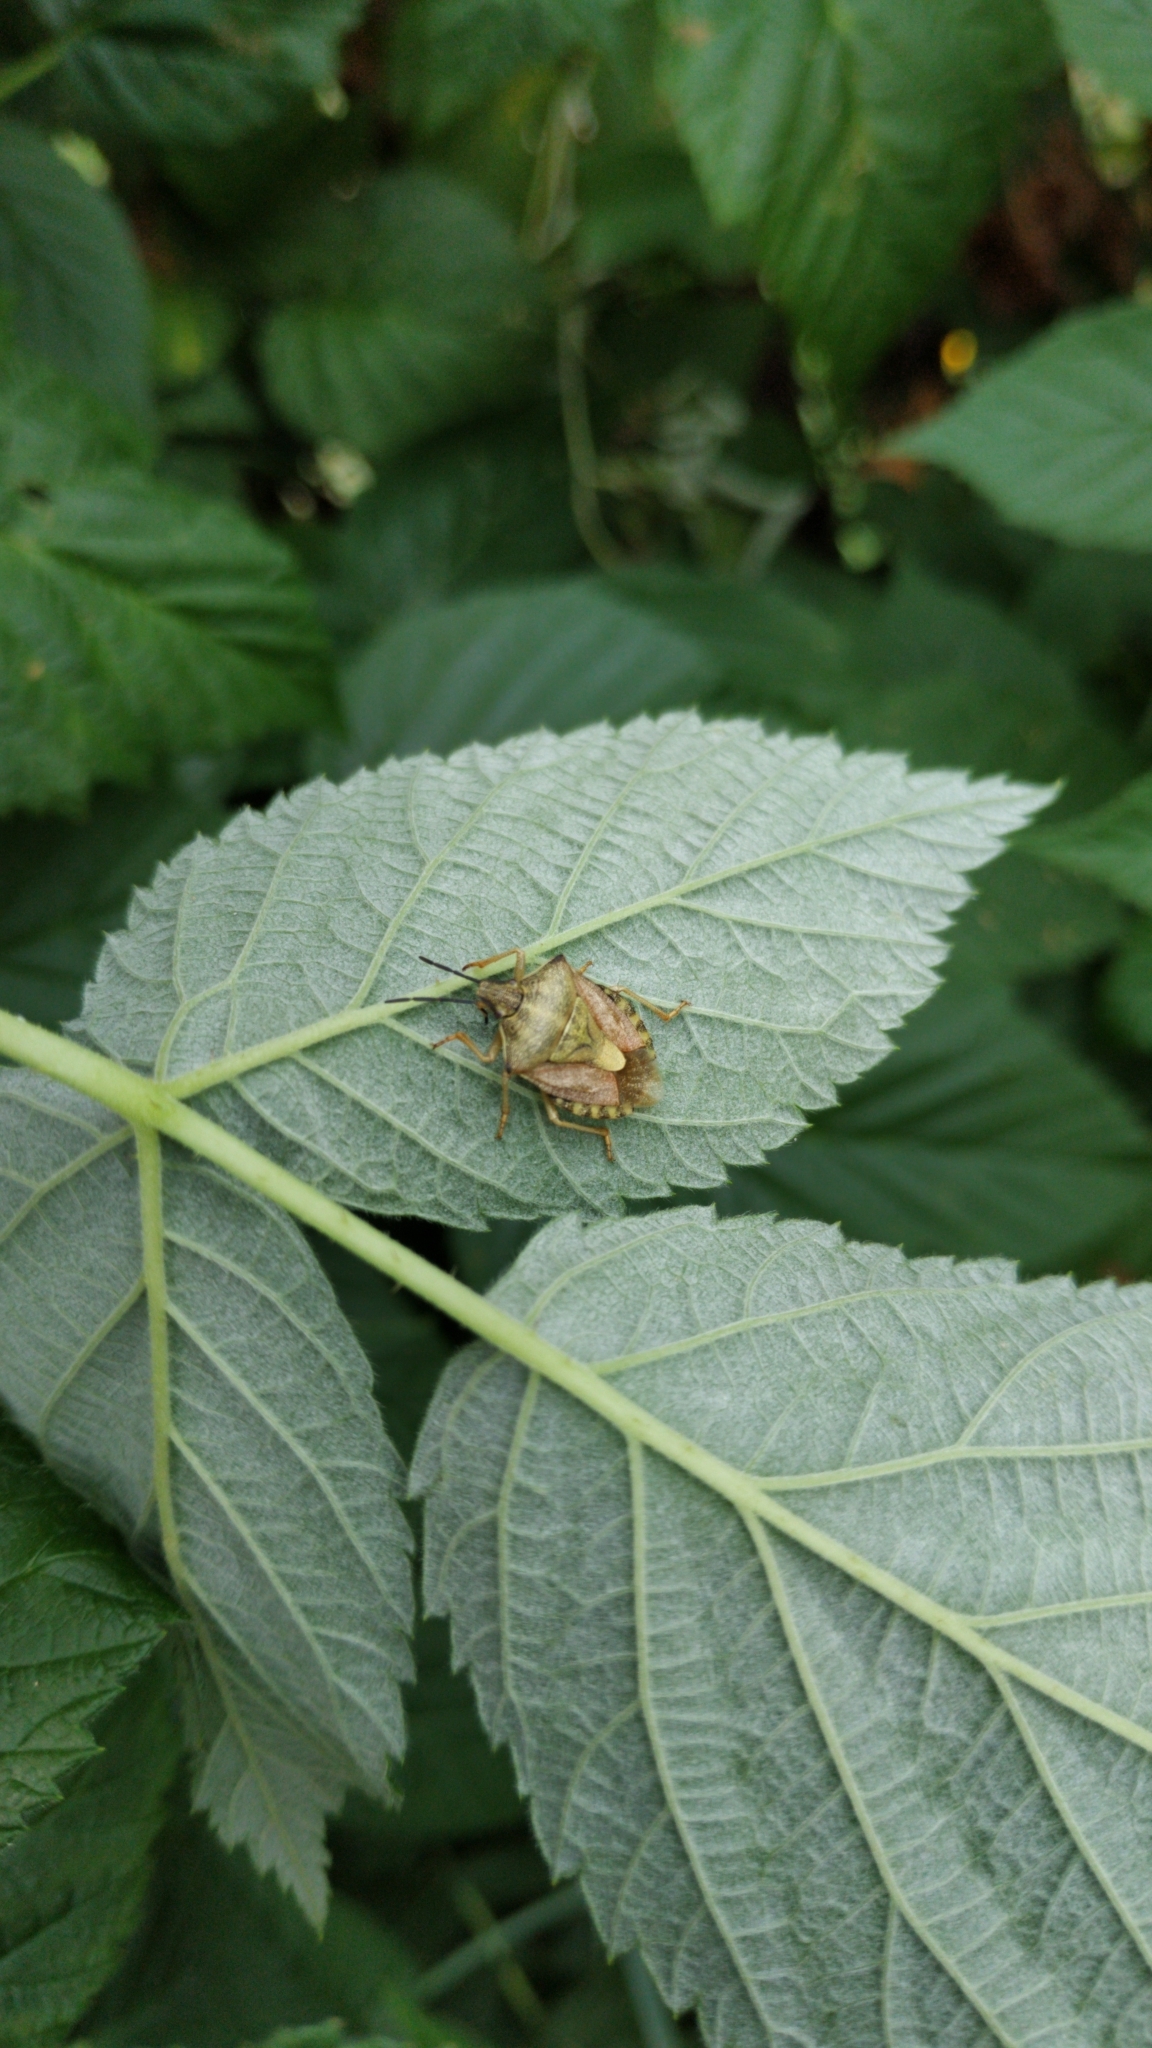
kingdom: Animalia
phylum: Arthropoda
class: Insecta
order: Hemiptera
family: Pentatomidae
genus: Carpocoris
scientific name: Carpocoris purpureipennis
